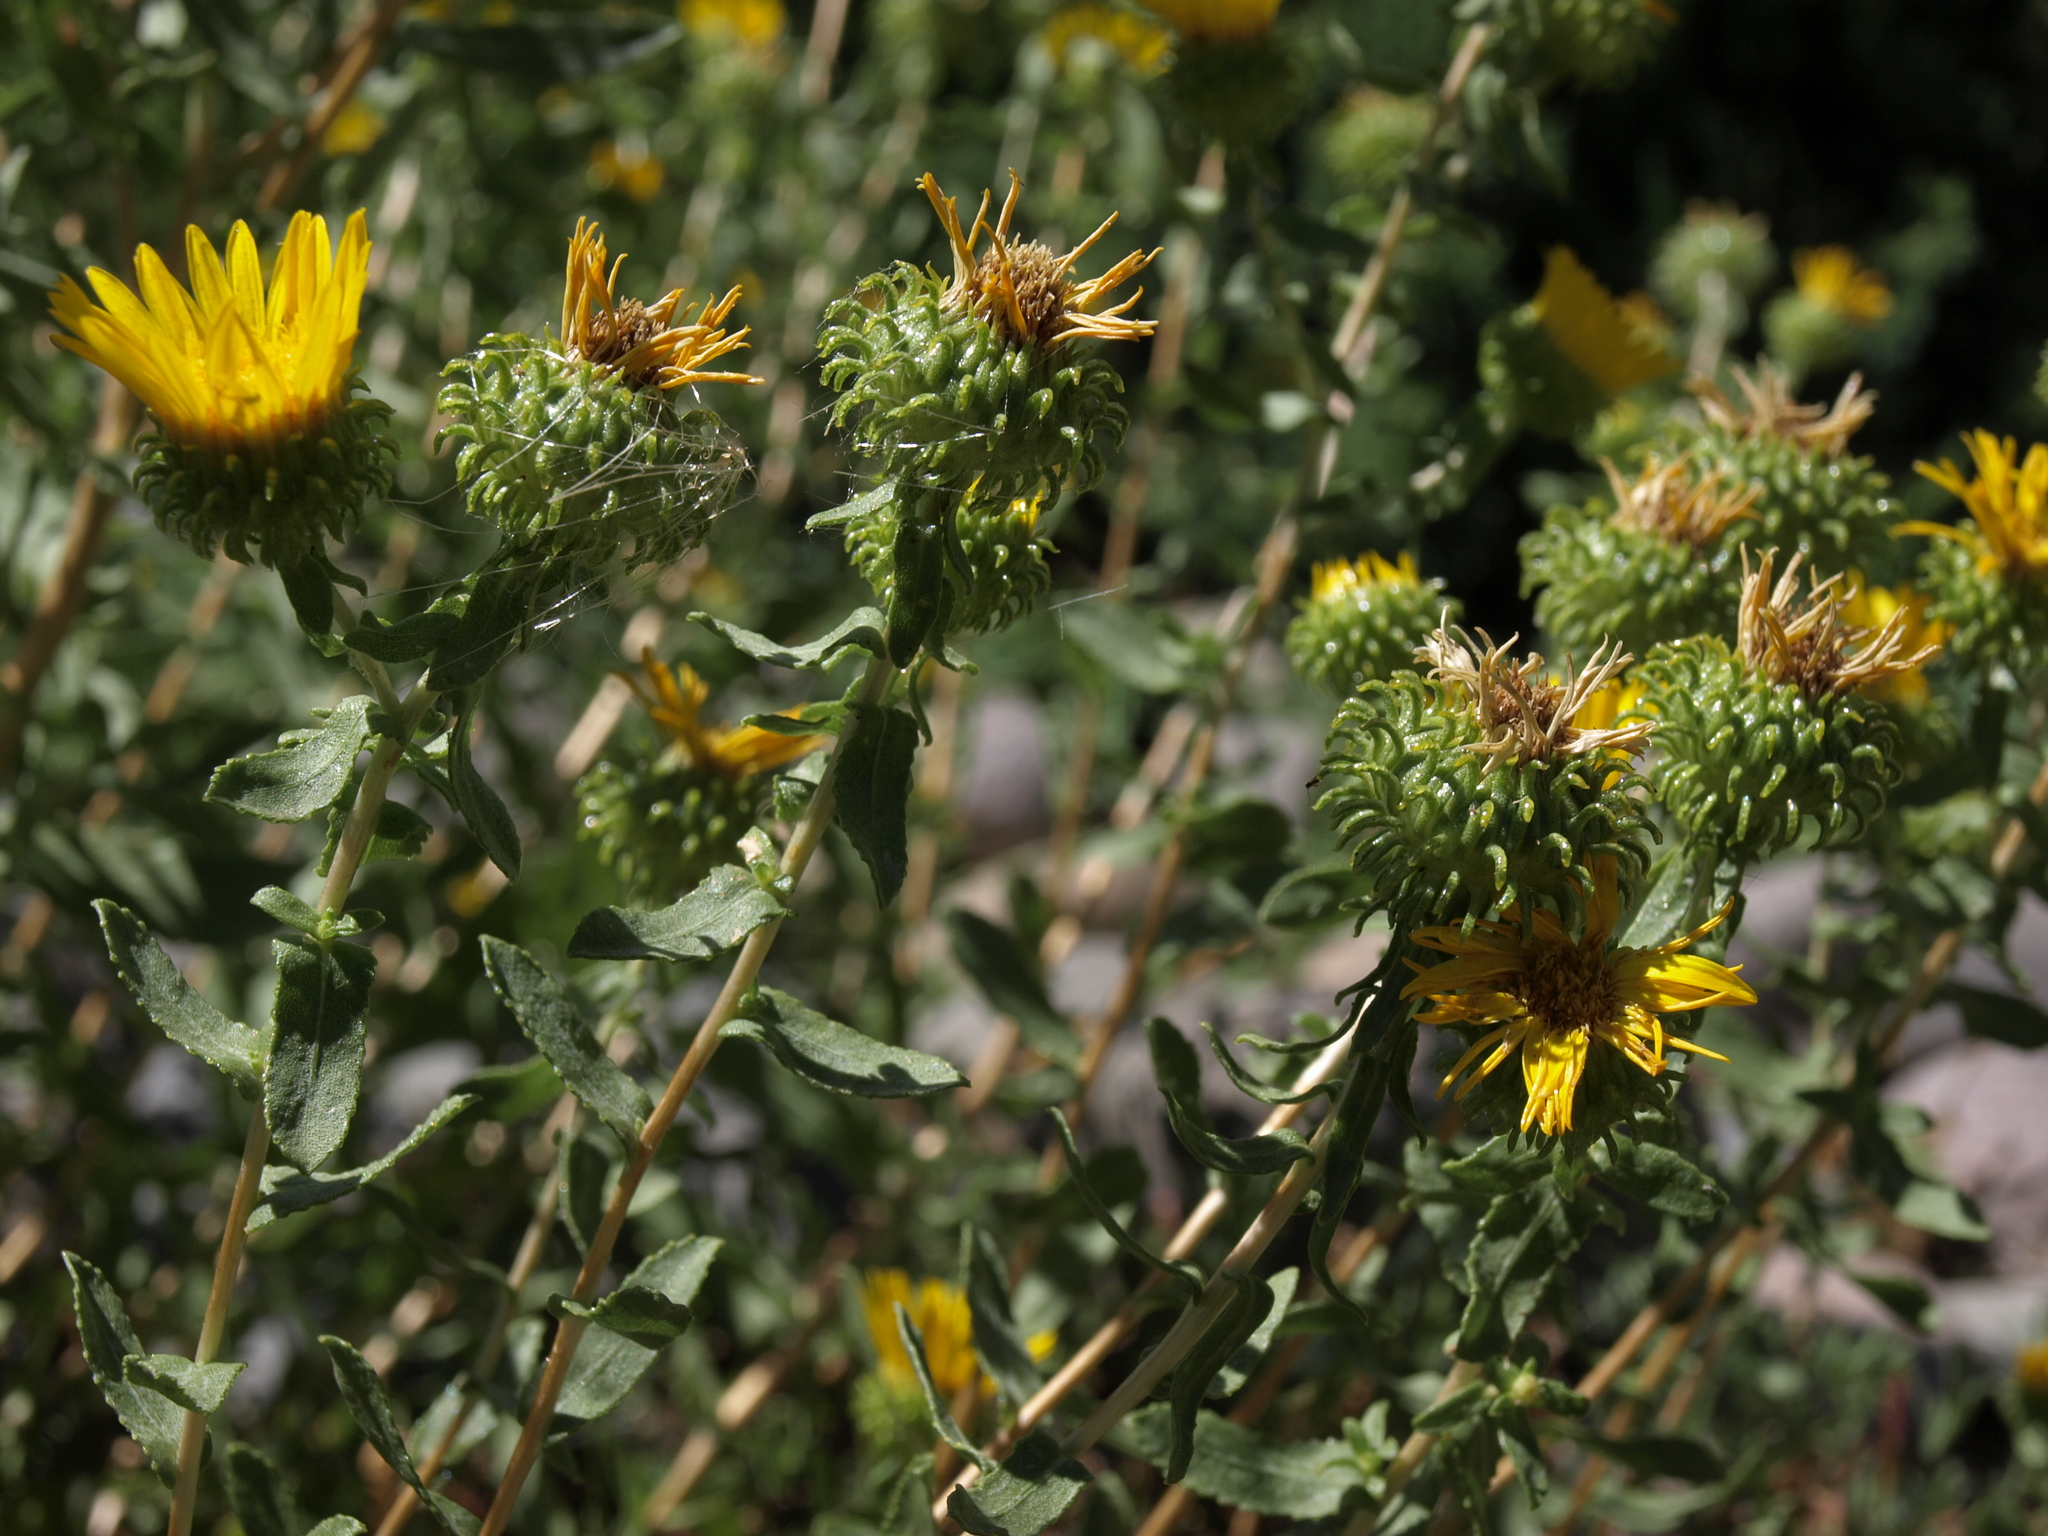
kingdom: Plantae
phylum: Tracheophyta
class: Magnoliopsida
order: Asterales
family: Asteraceae
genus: Grindelia
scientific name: Grindelia squarrosa
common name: Curly-cup gumweed
